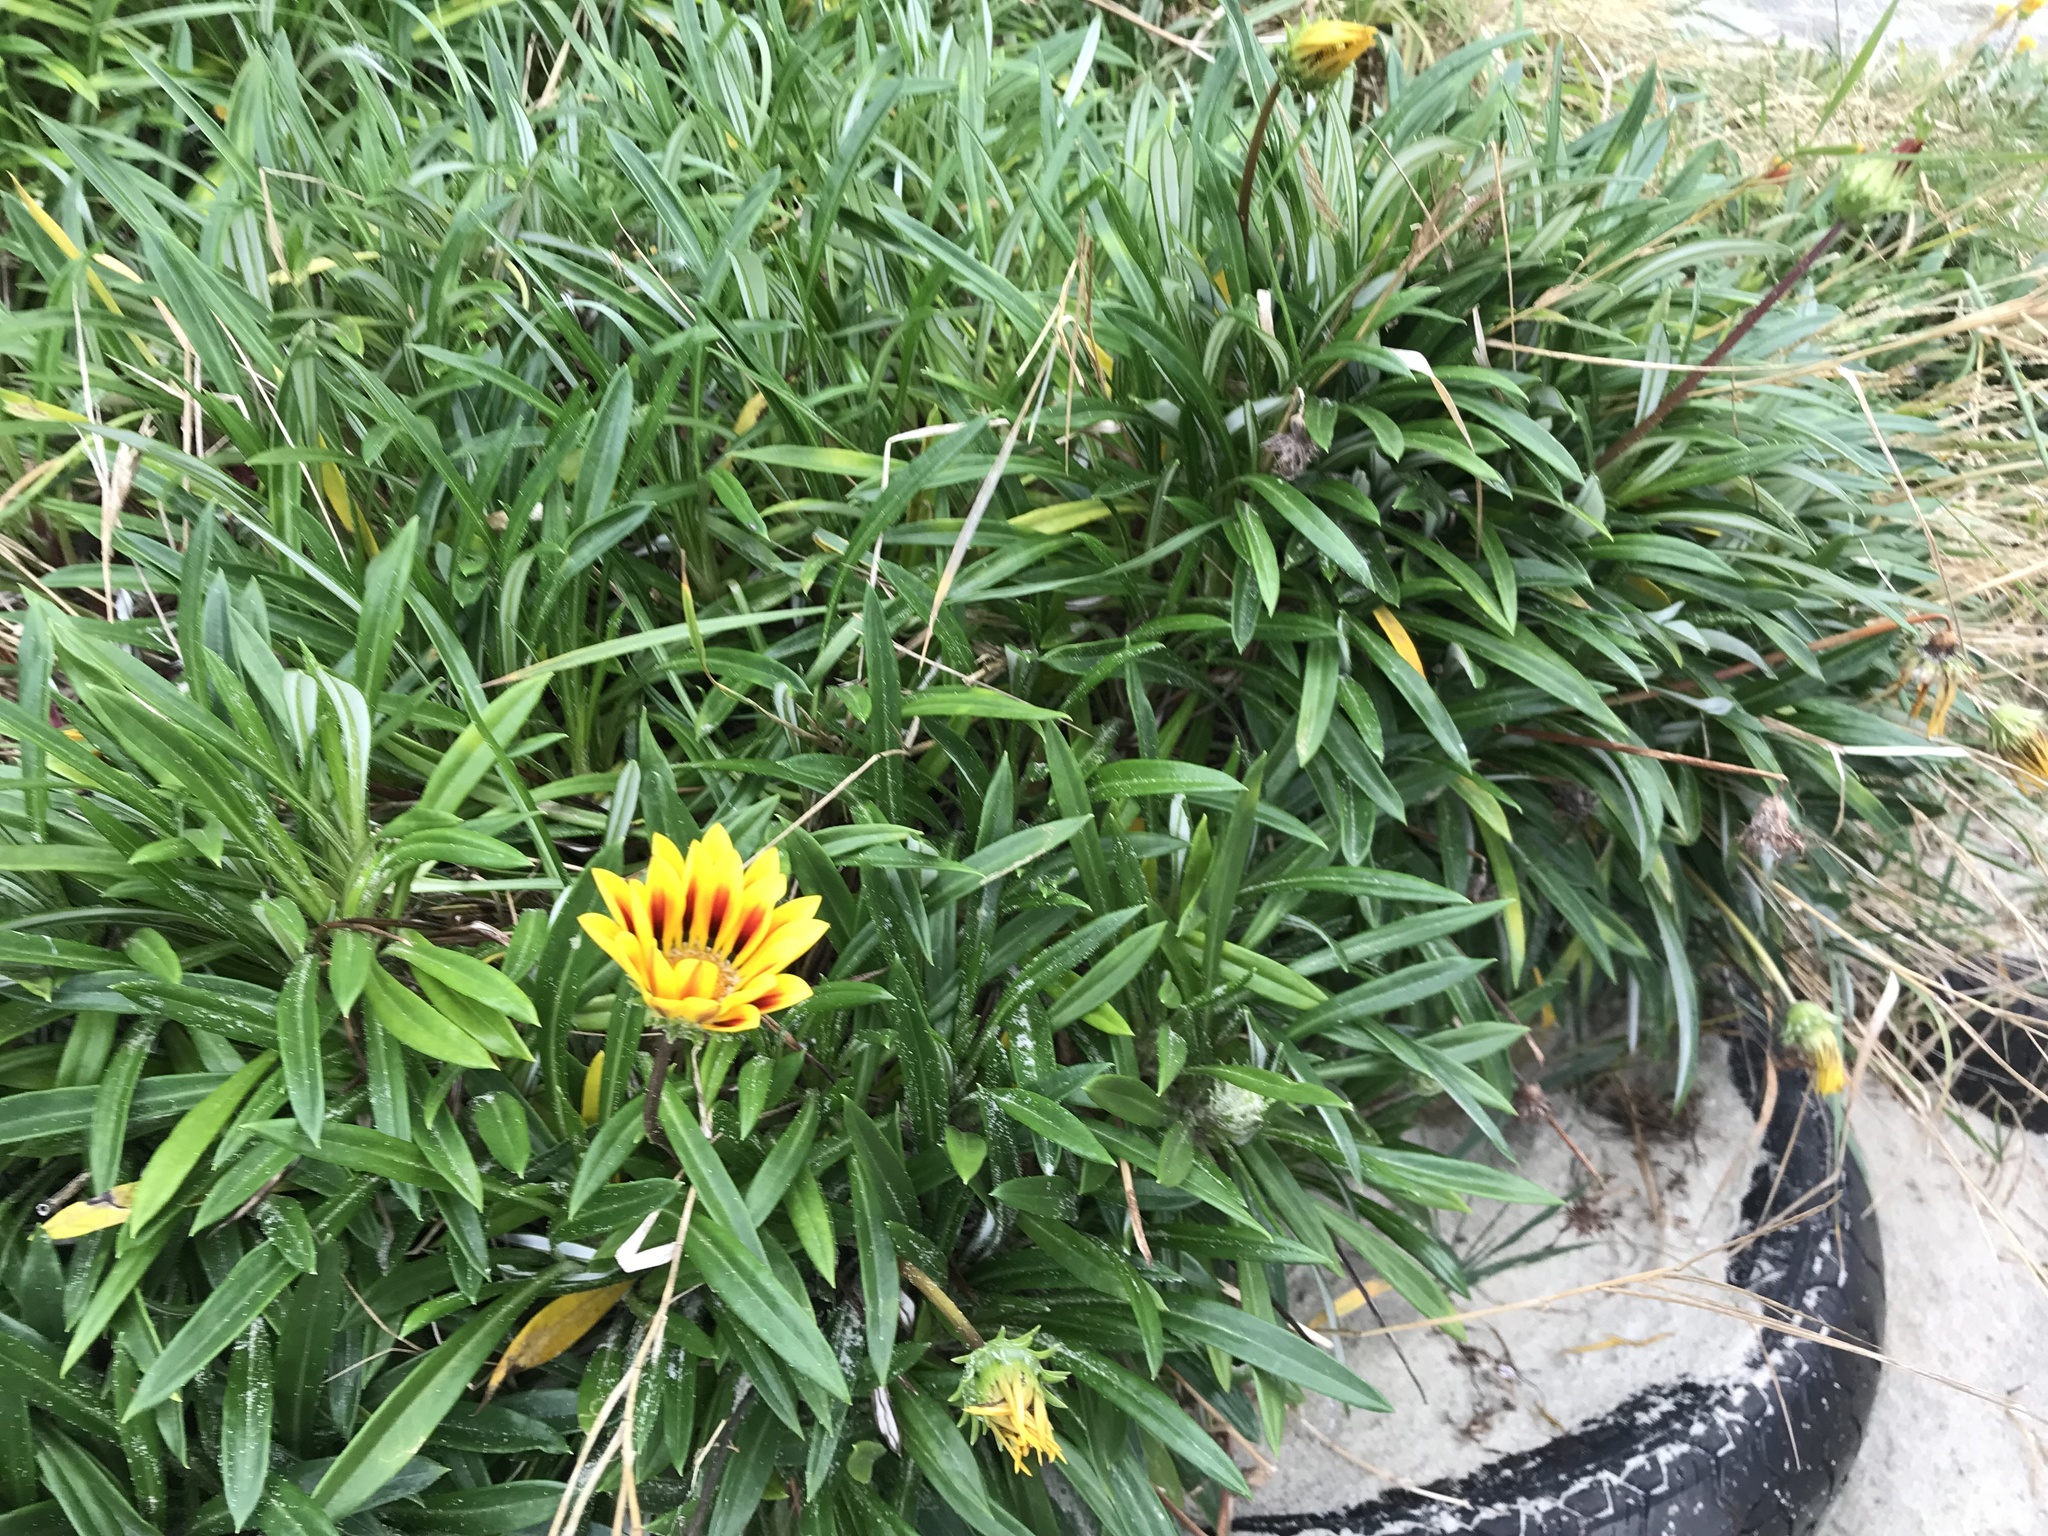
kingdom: Plantae
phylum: Tracheophyta
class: Magnoliopsida
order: Asterales
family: Asteraceae
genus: Gazania
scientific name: Gazania splendens
